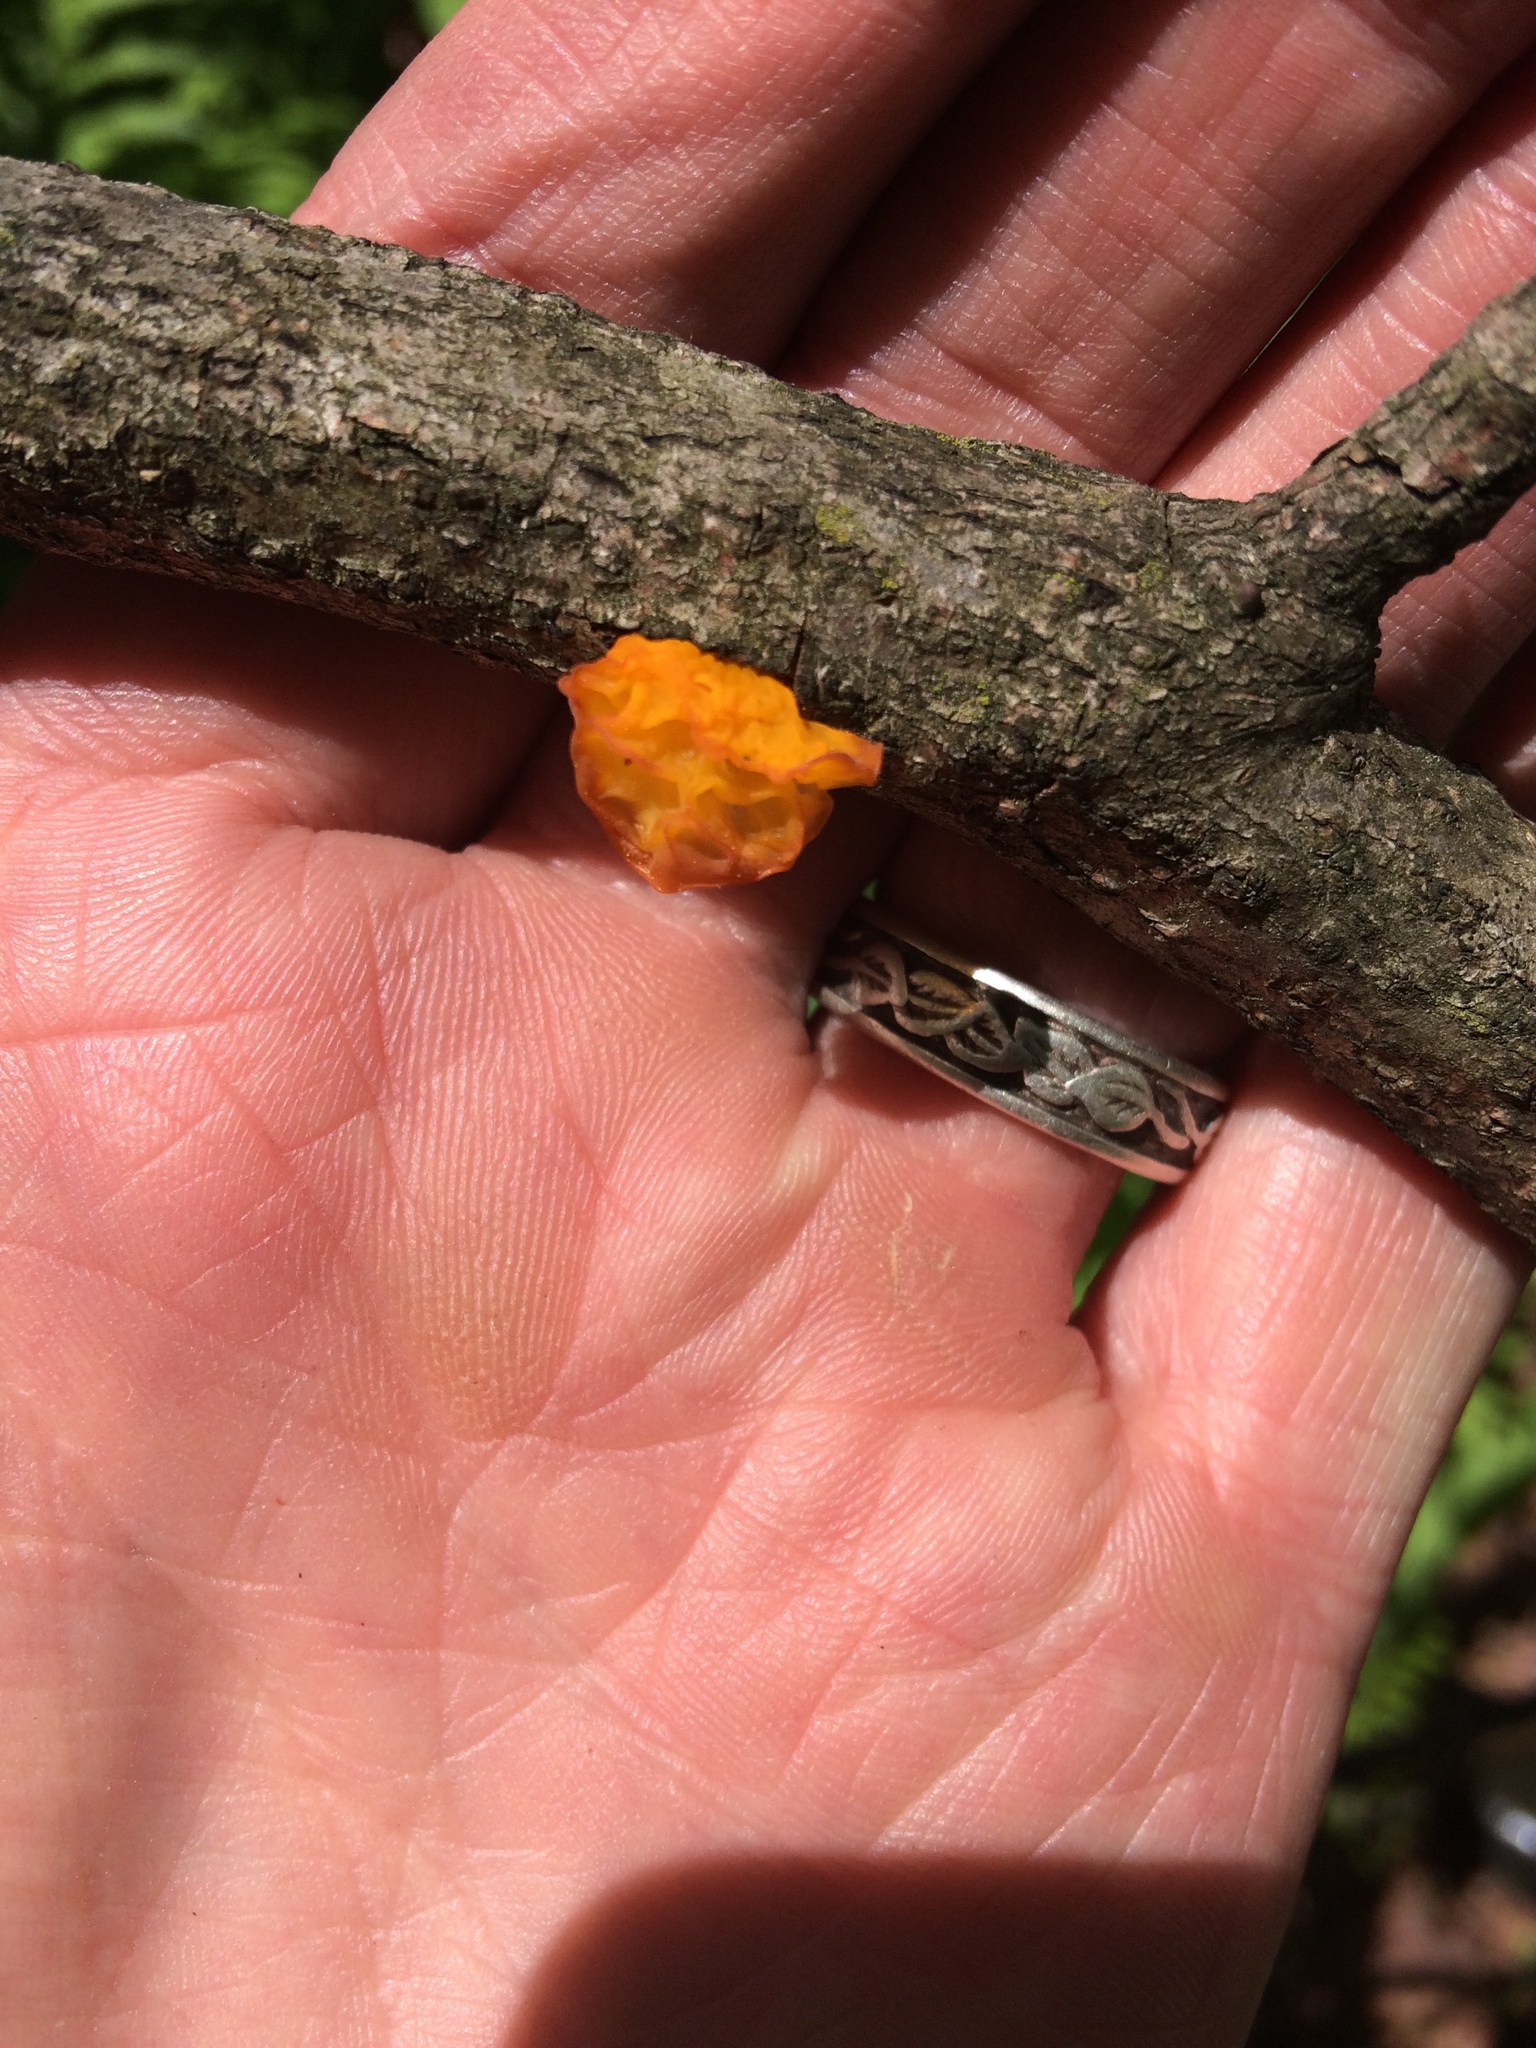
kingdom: Fungi
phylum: Basidiomycota
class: Tremellomycetes
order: Tremellales
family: Tremellaceae
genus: Tremella
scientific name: Tremella mesenterica
